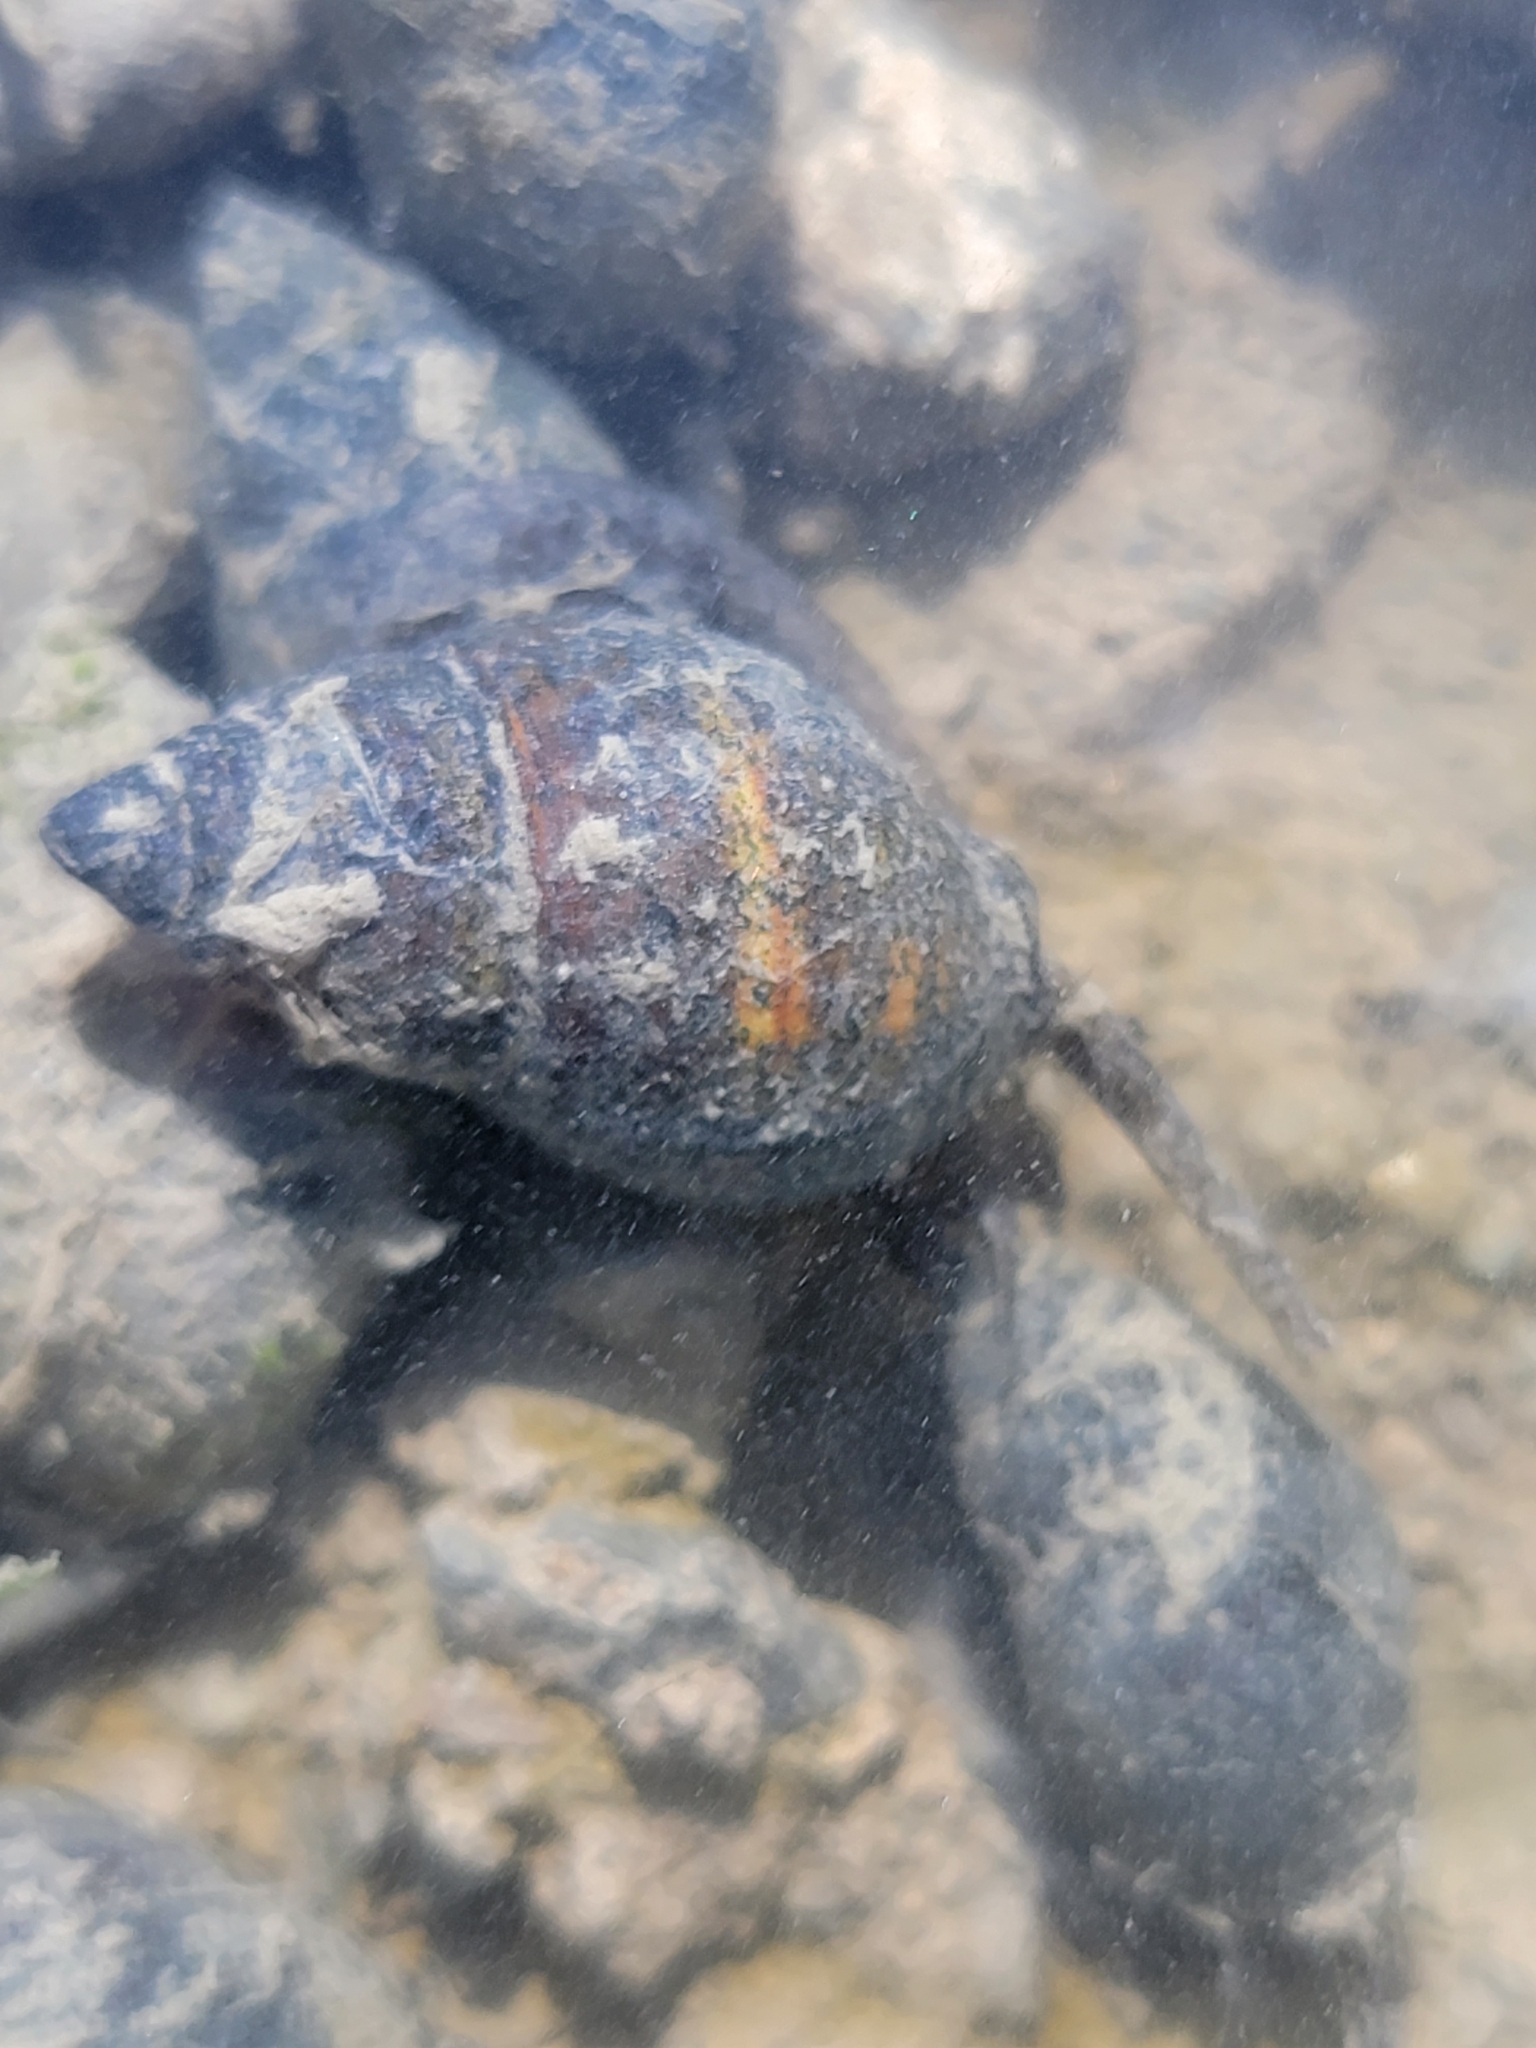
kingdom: Animalia
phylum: Mollusca
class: Gastropoda
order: Neogastropoda
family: Nassariidae
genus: Ilyanassa
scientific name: Ilyanassa obsoleta
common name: Eastern mudsnail
